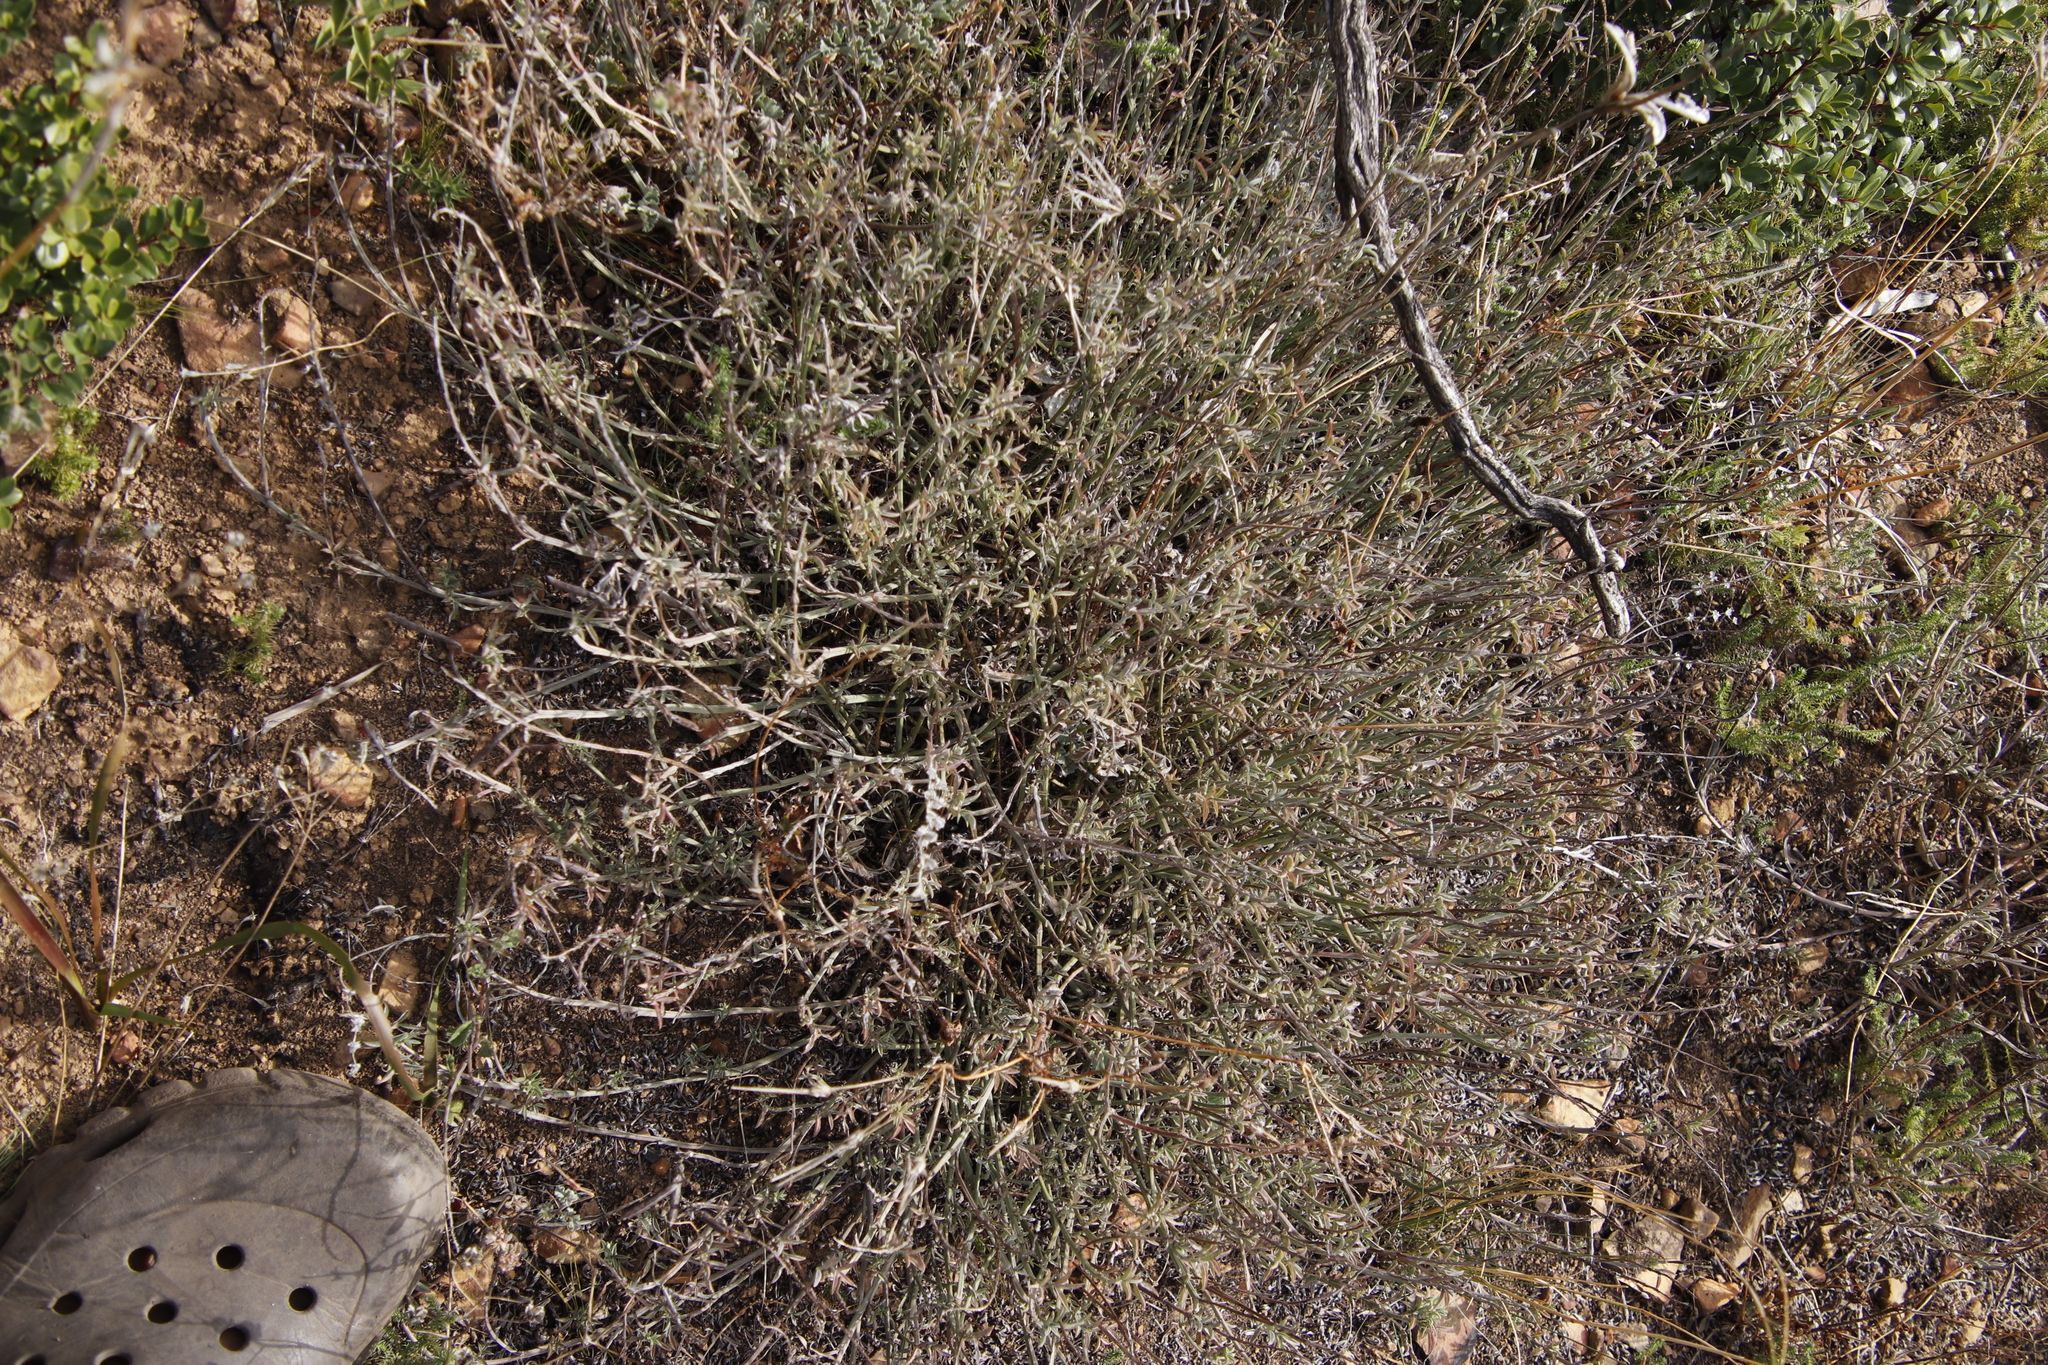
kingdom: Plantae
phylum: Tracheophyta
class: Magnoliopsida
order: Fabales
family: Fabaceae
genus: Indigofera
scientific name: Indigofera complanata
